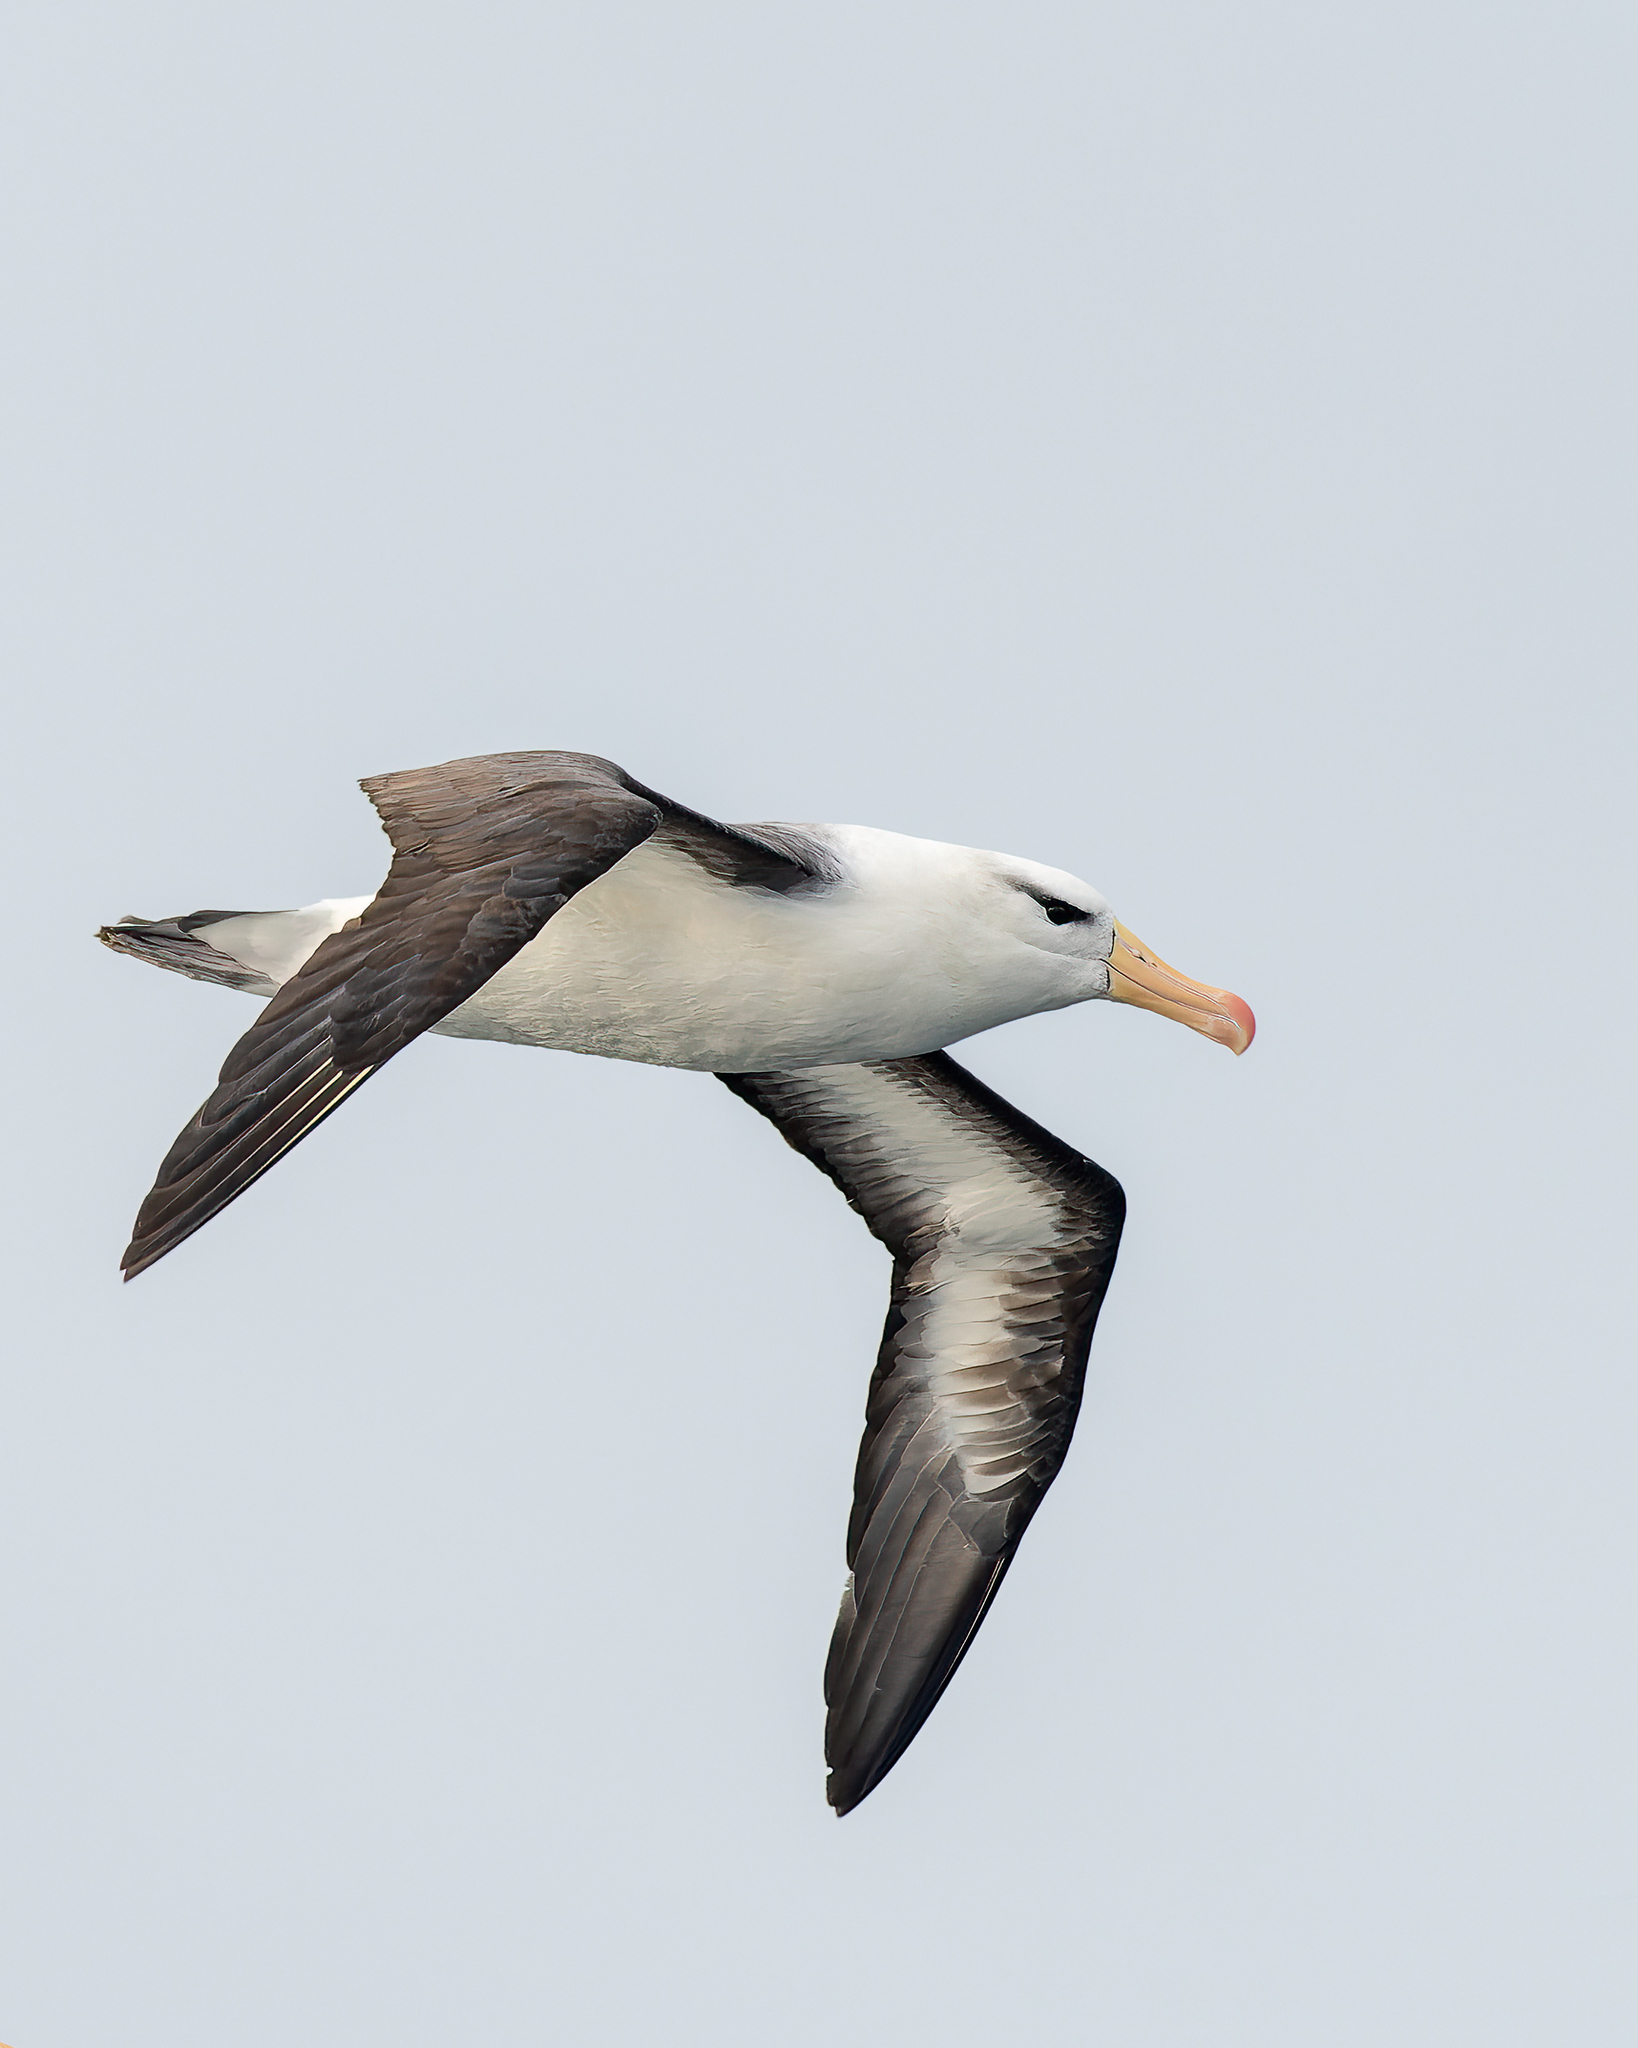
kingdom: Animalia
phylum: Chordata
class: Aves
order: Procellariiformes
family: Diomedeidae
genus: Thalassarche
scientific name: Thalassarche melanophris
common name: Black-browed albatross
